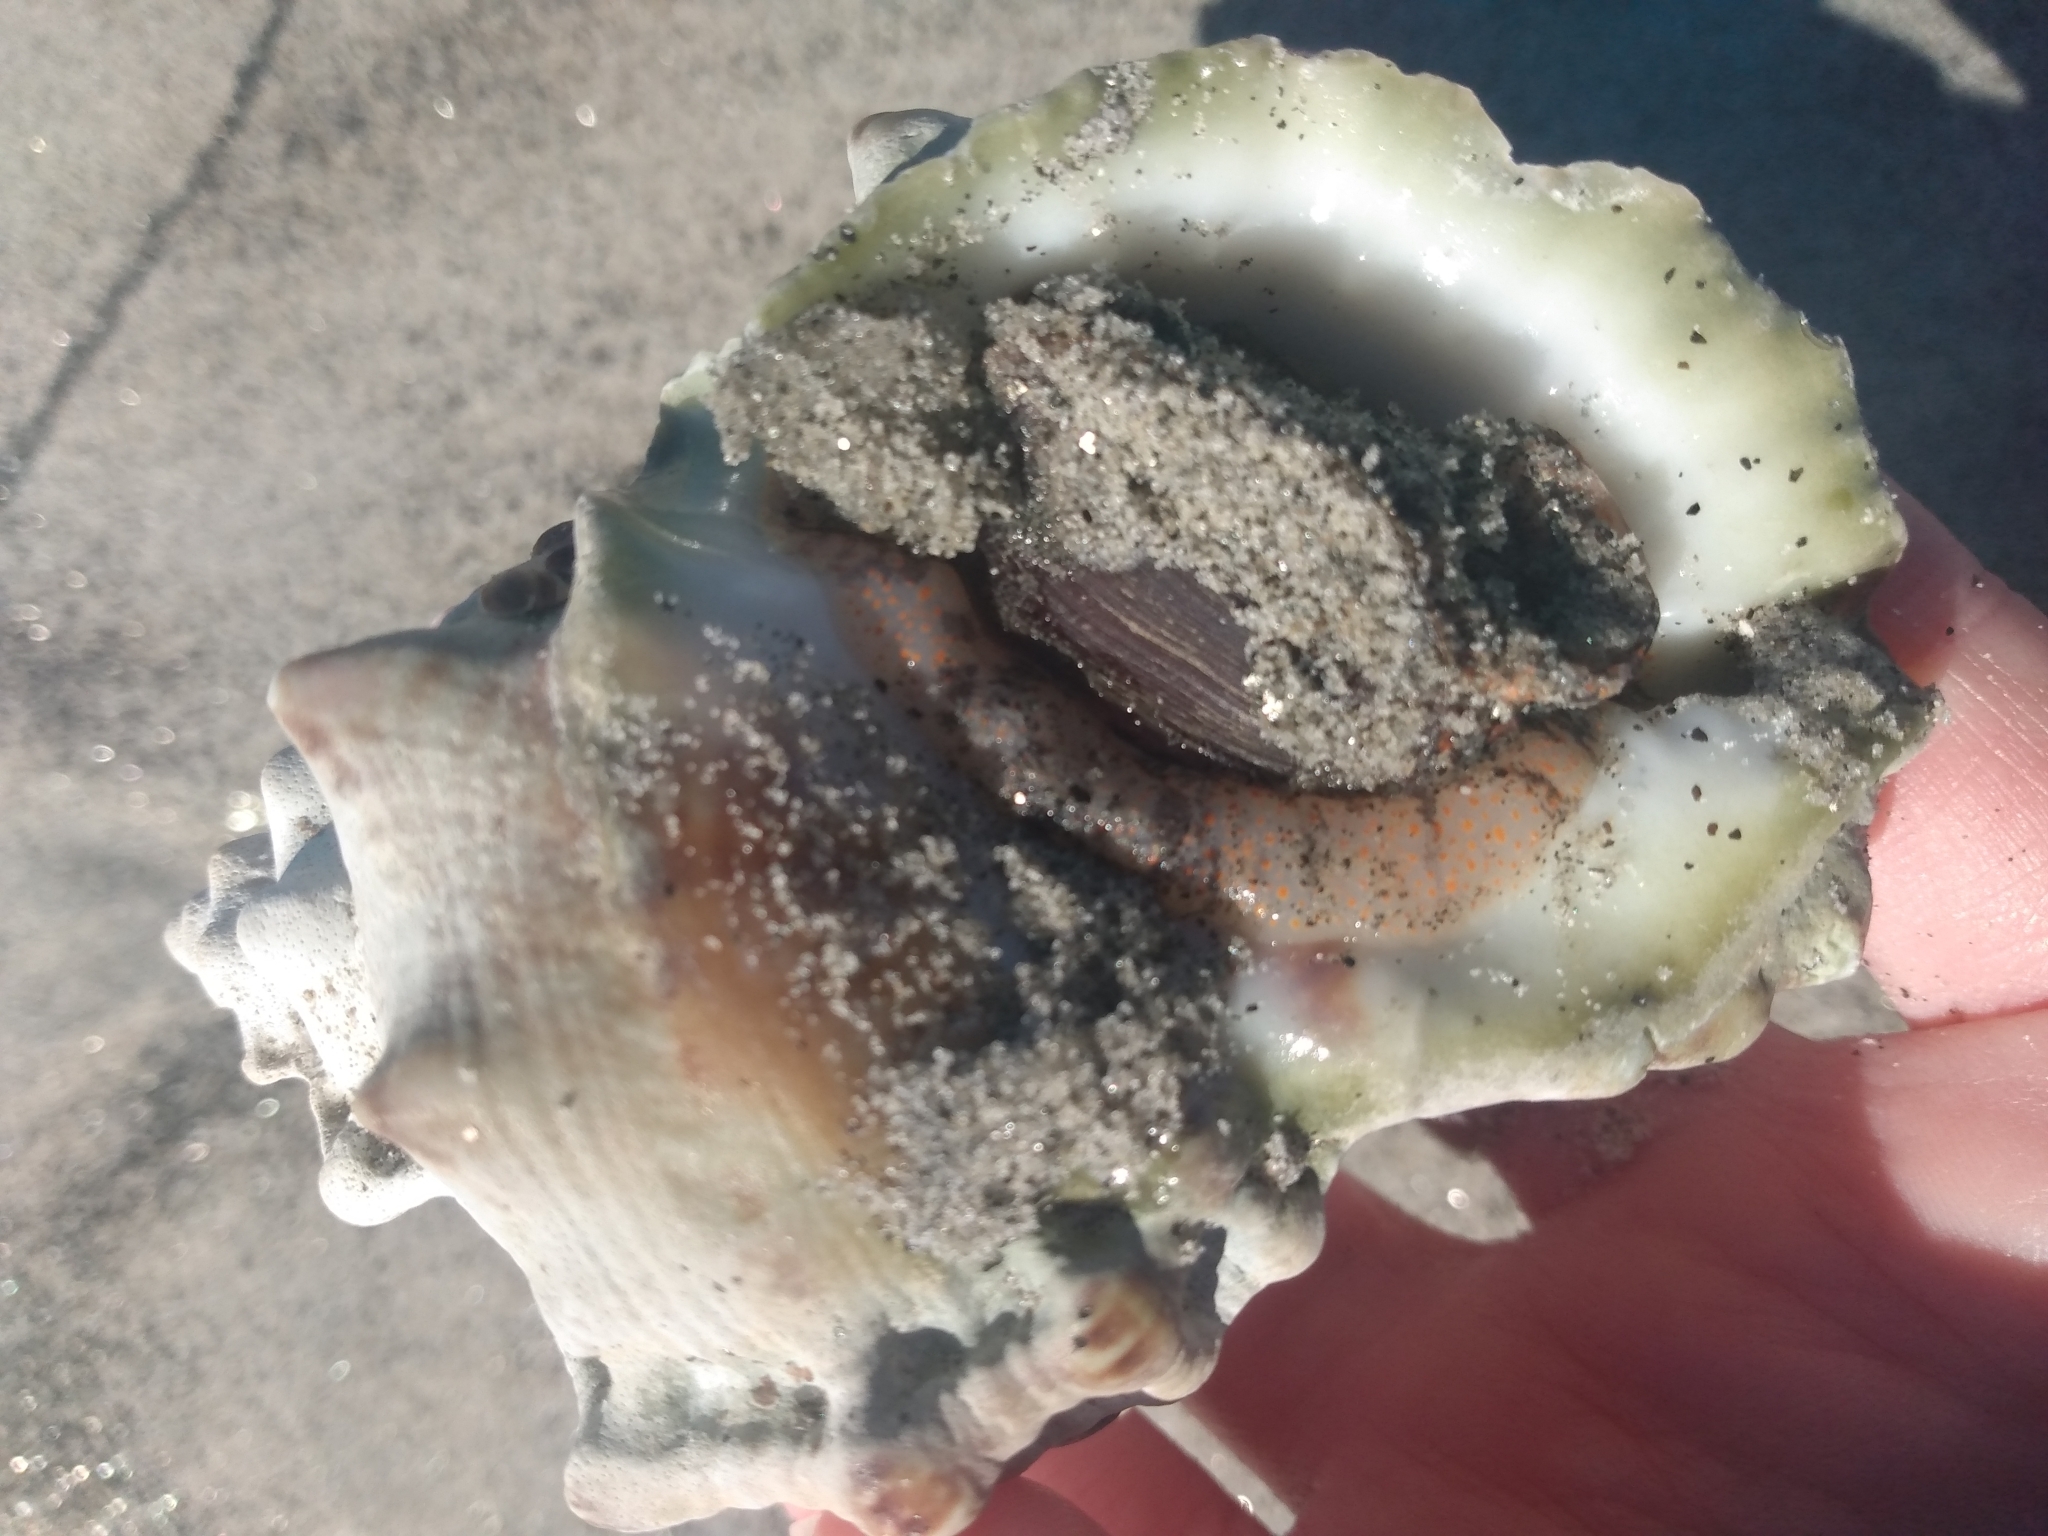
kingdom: Animalia
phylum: Mollusca
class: Gastropoda
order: Littorinimorpha
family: Bursidae
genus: Crossata
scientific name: Crossata californica
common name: California frogsnail
